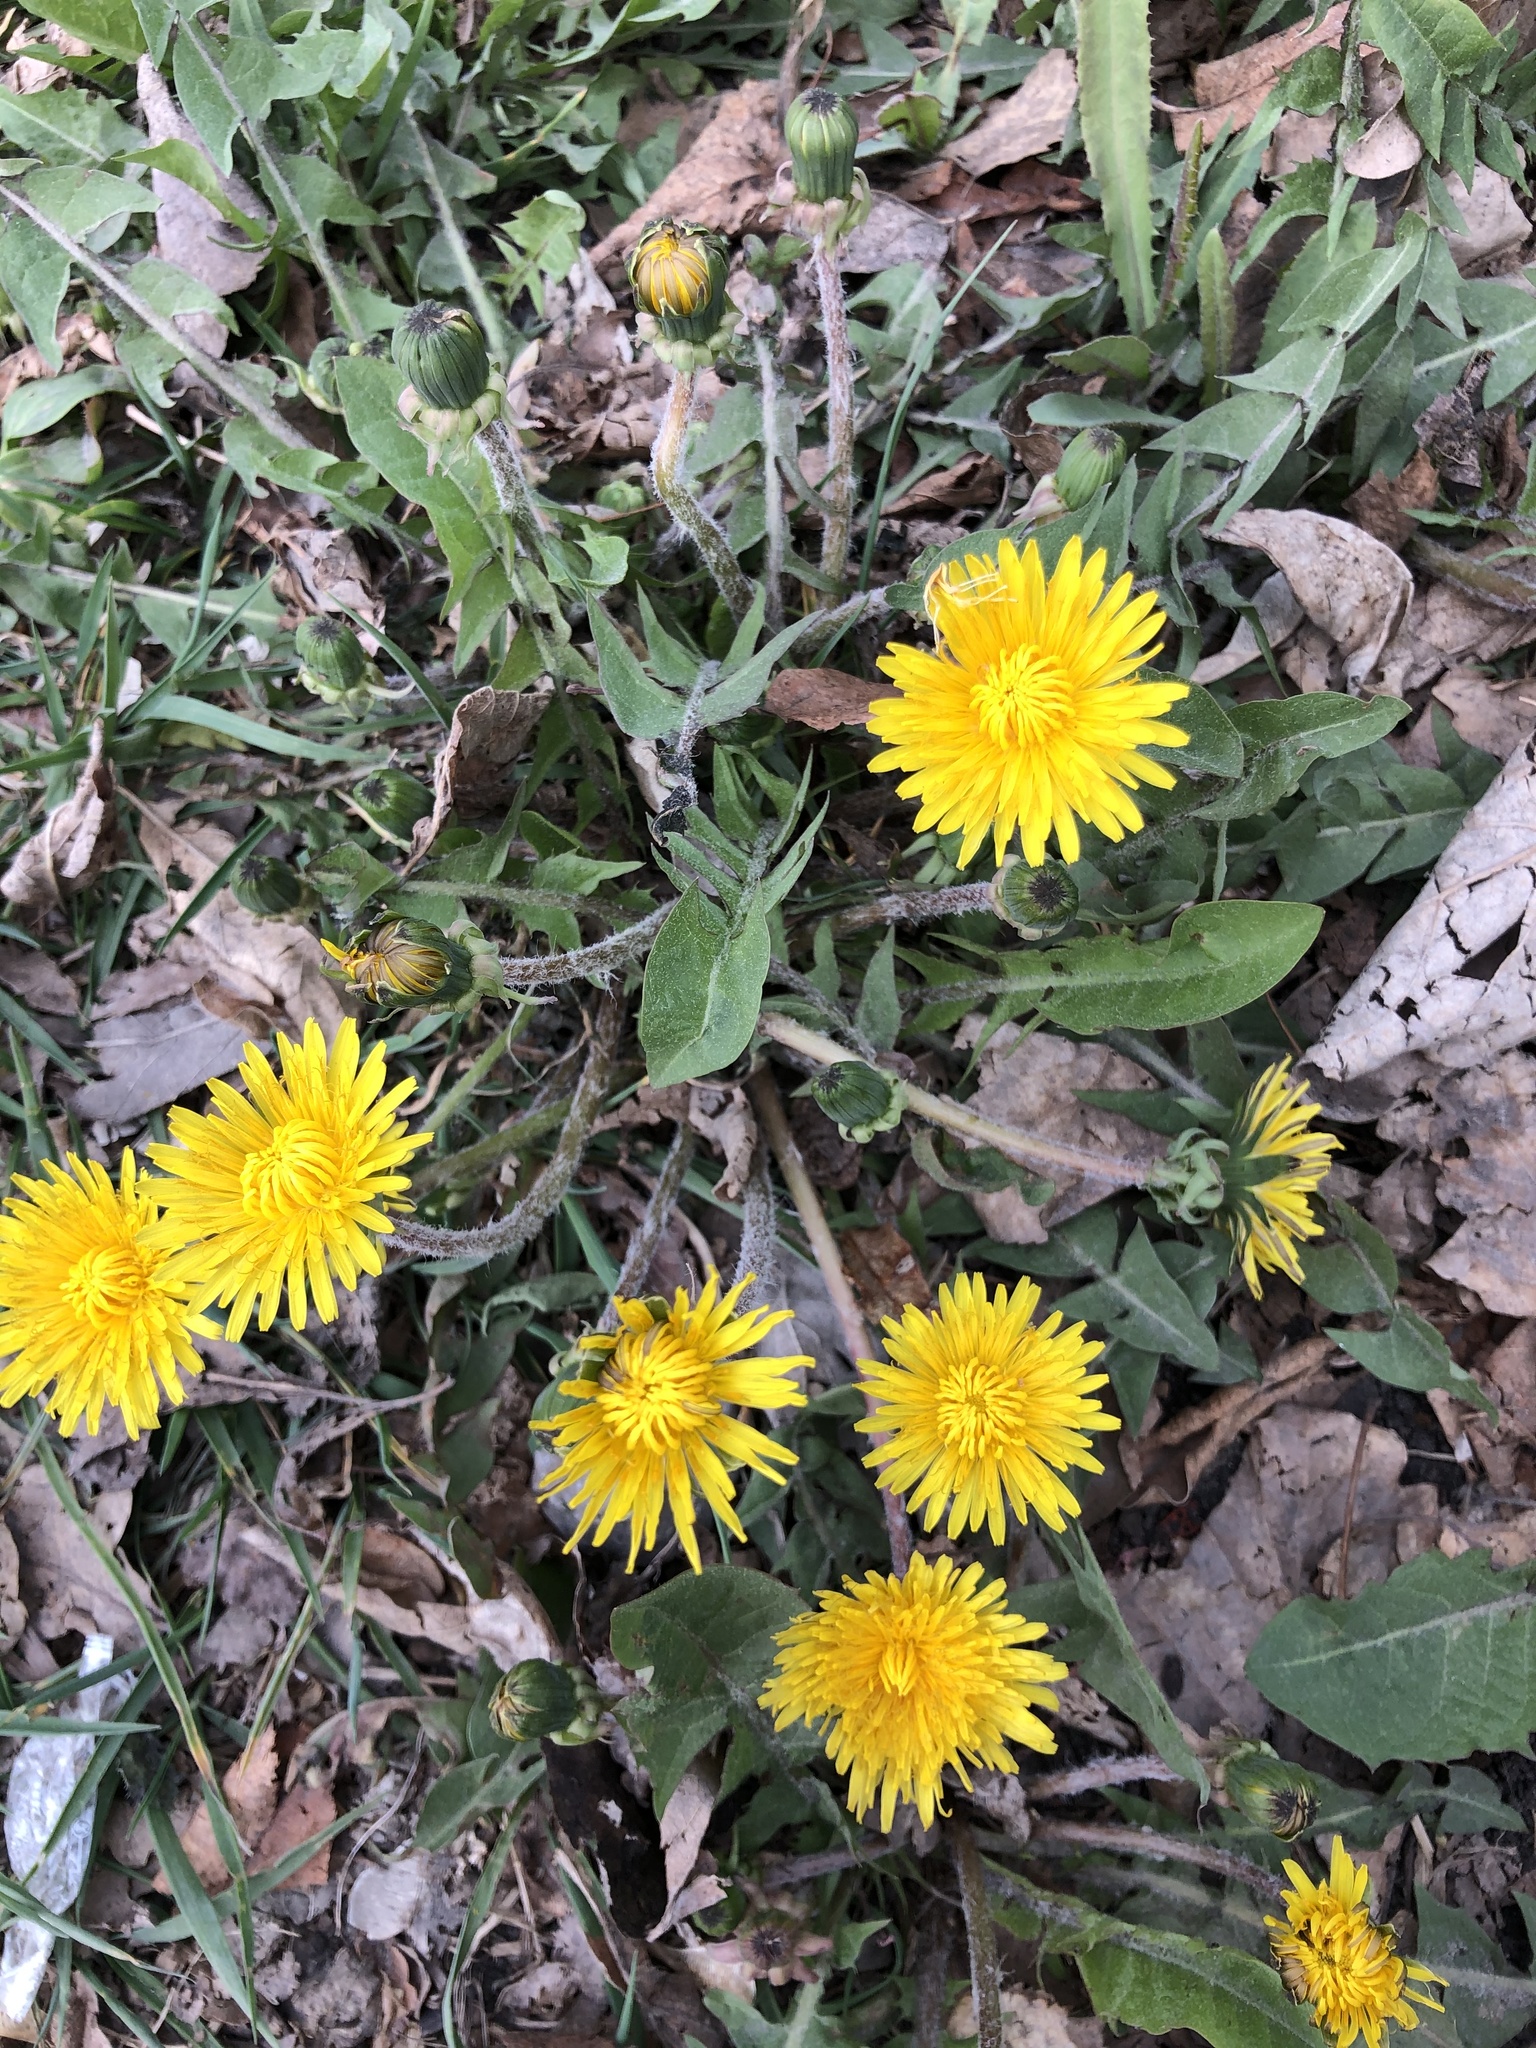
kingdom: Plantae
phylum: Tracheophyta
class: Magnoliopsida
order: Asterales
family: Asteraceae
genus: Taraxacum
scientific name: Taraxacum officinale
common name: Common dandelion
